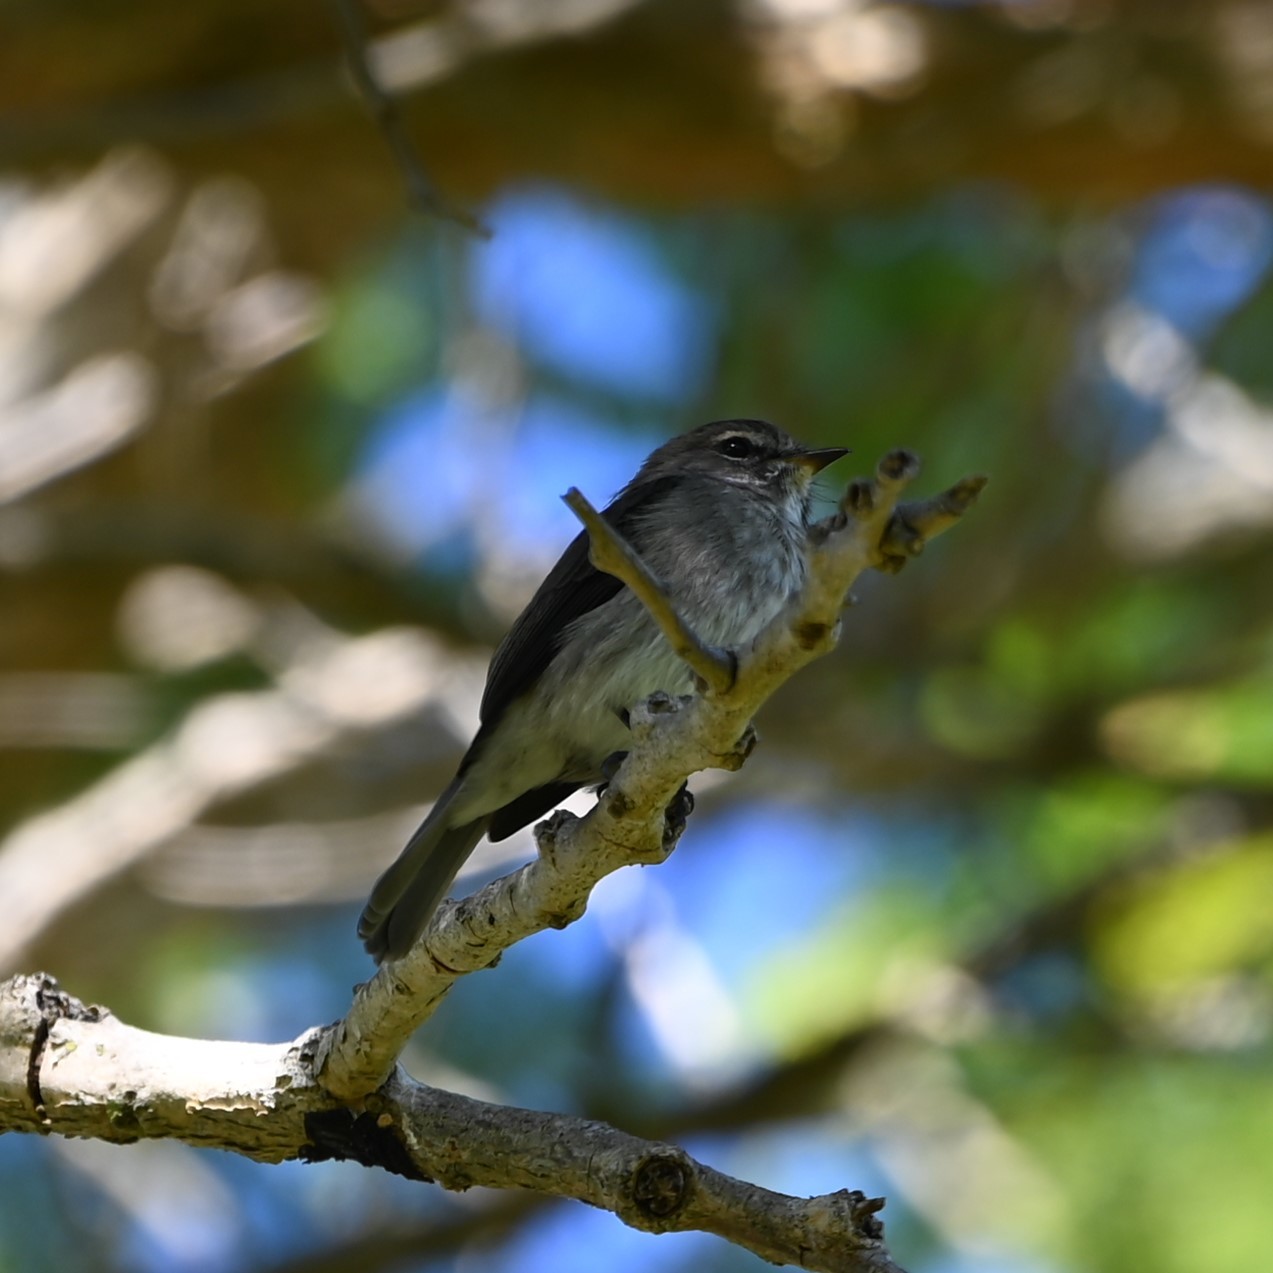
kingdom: Animalia
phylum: Chordata
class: Aves
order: Passeriformes
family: Muscicapidae
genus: Muscicapa
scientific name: Muscicapa adusta
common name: African dusky flycatcher
